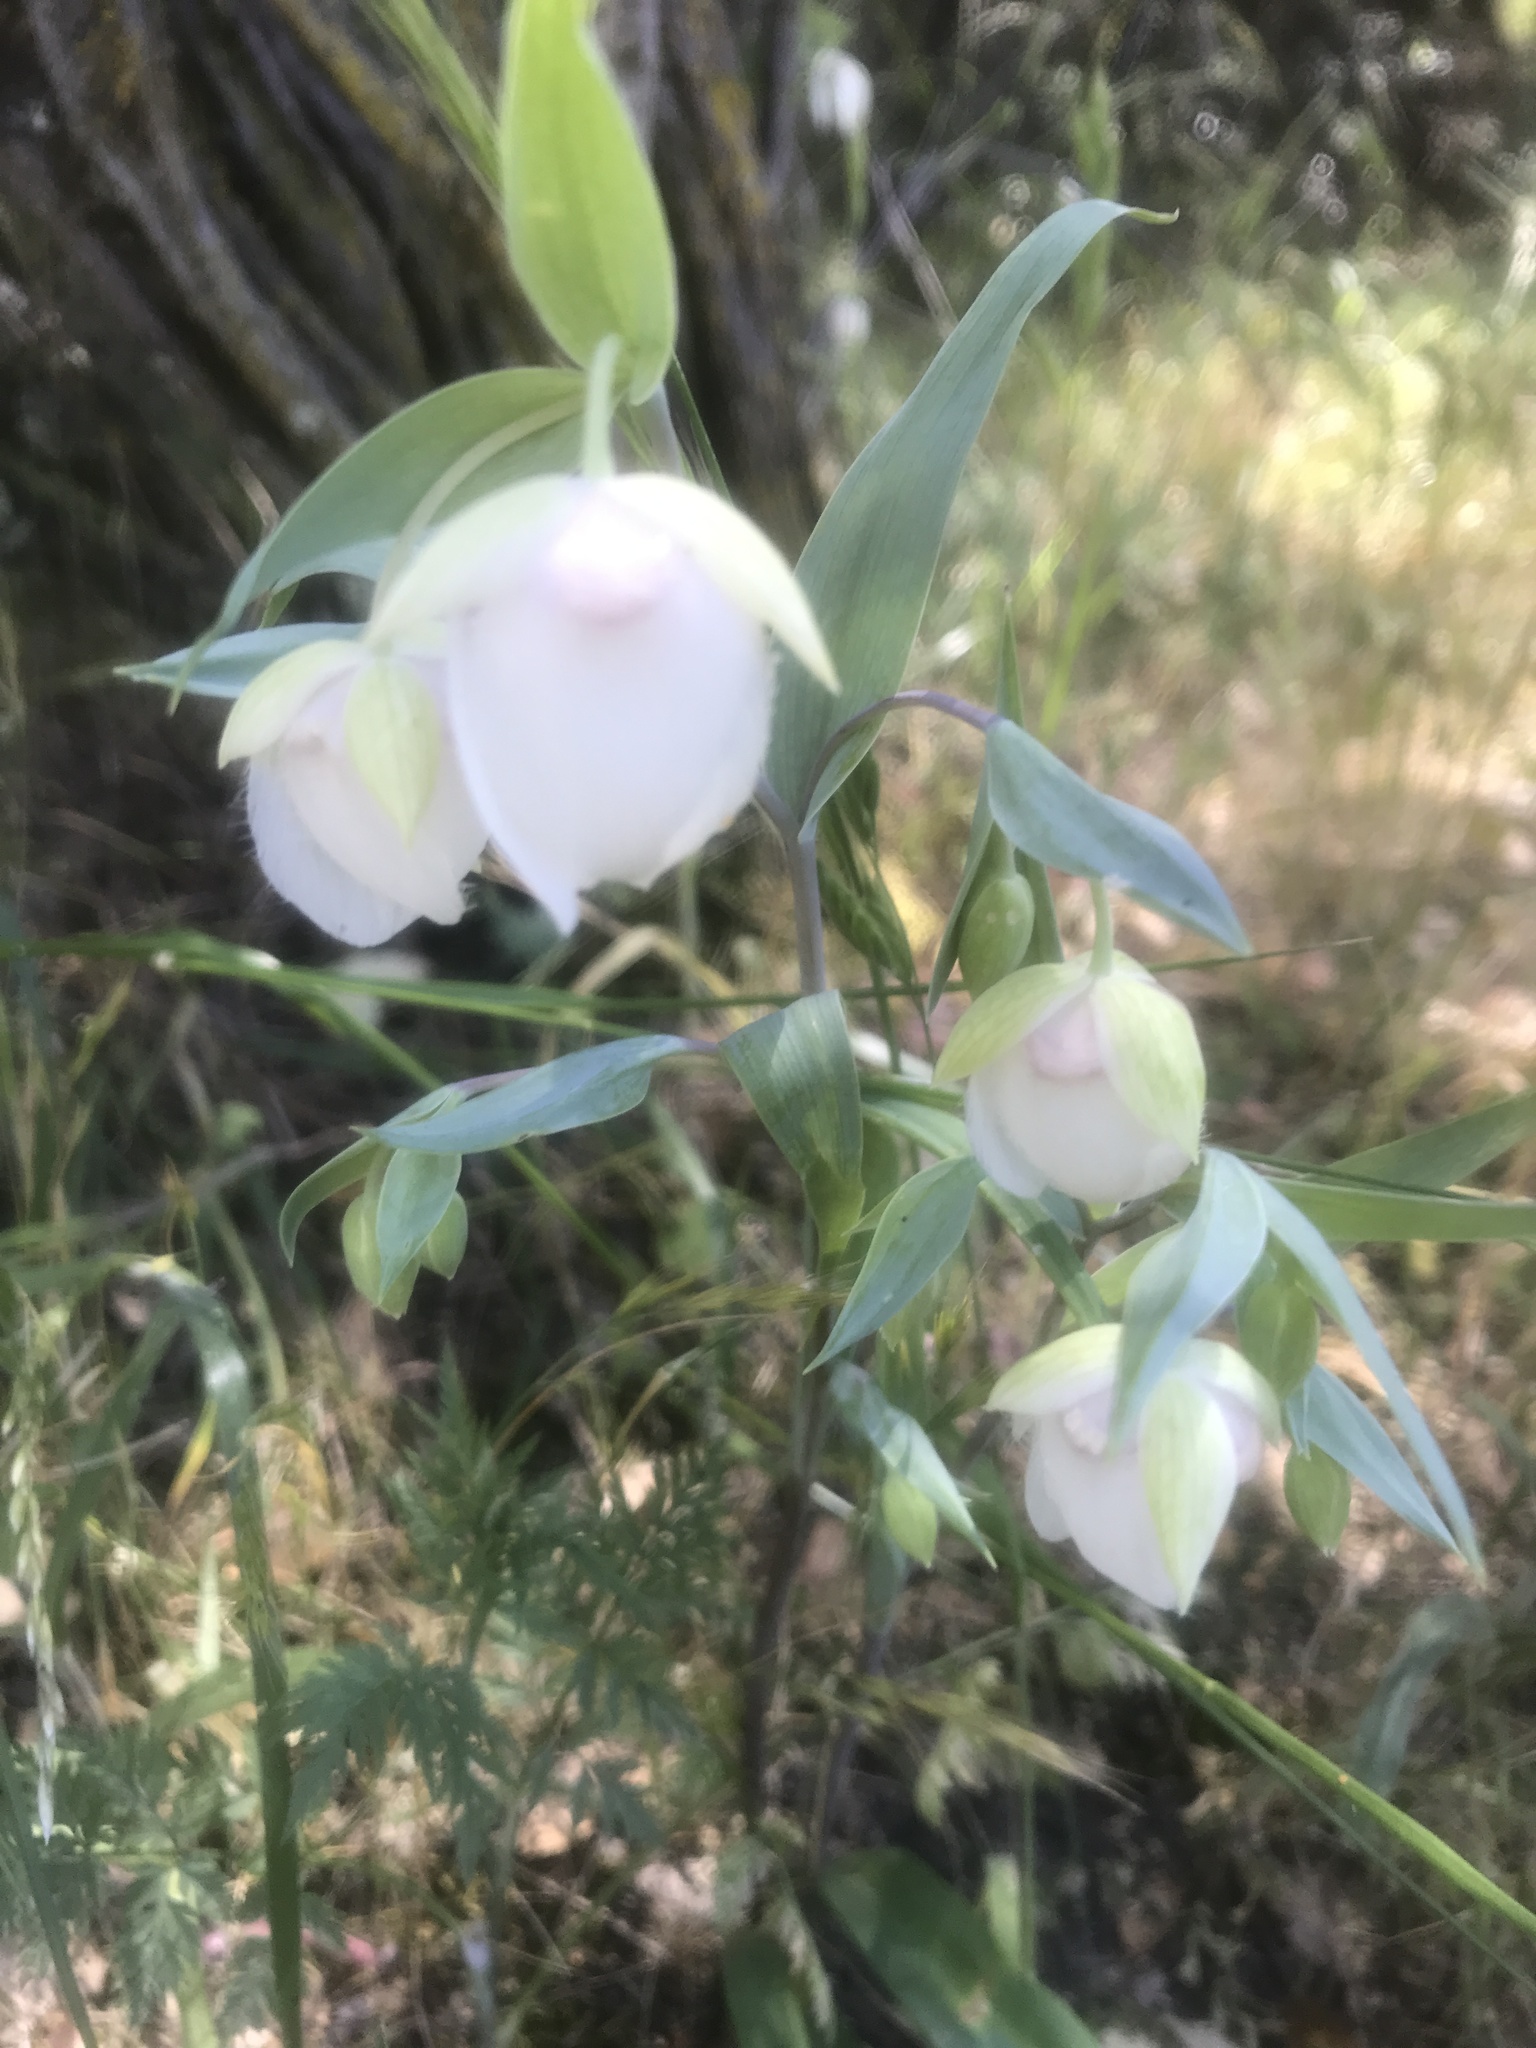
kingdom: Plantae
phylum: Tracheophyta
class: Liliopsida
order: Liliales
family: Liliaceae
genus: Calochortus
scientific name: Calochortus albus
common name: Fairy-lantern
